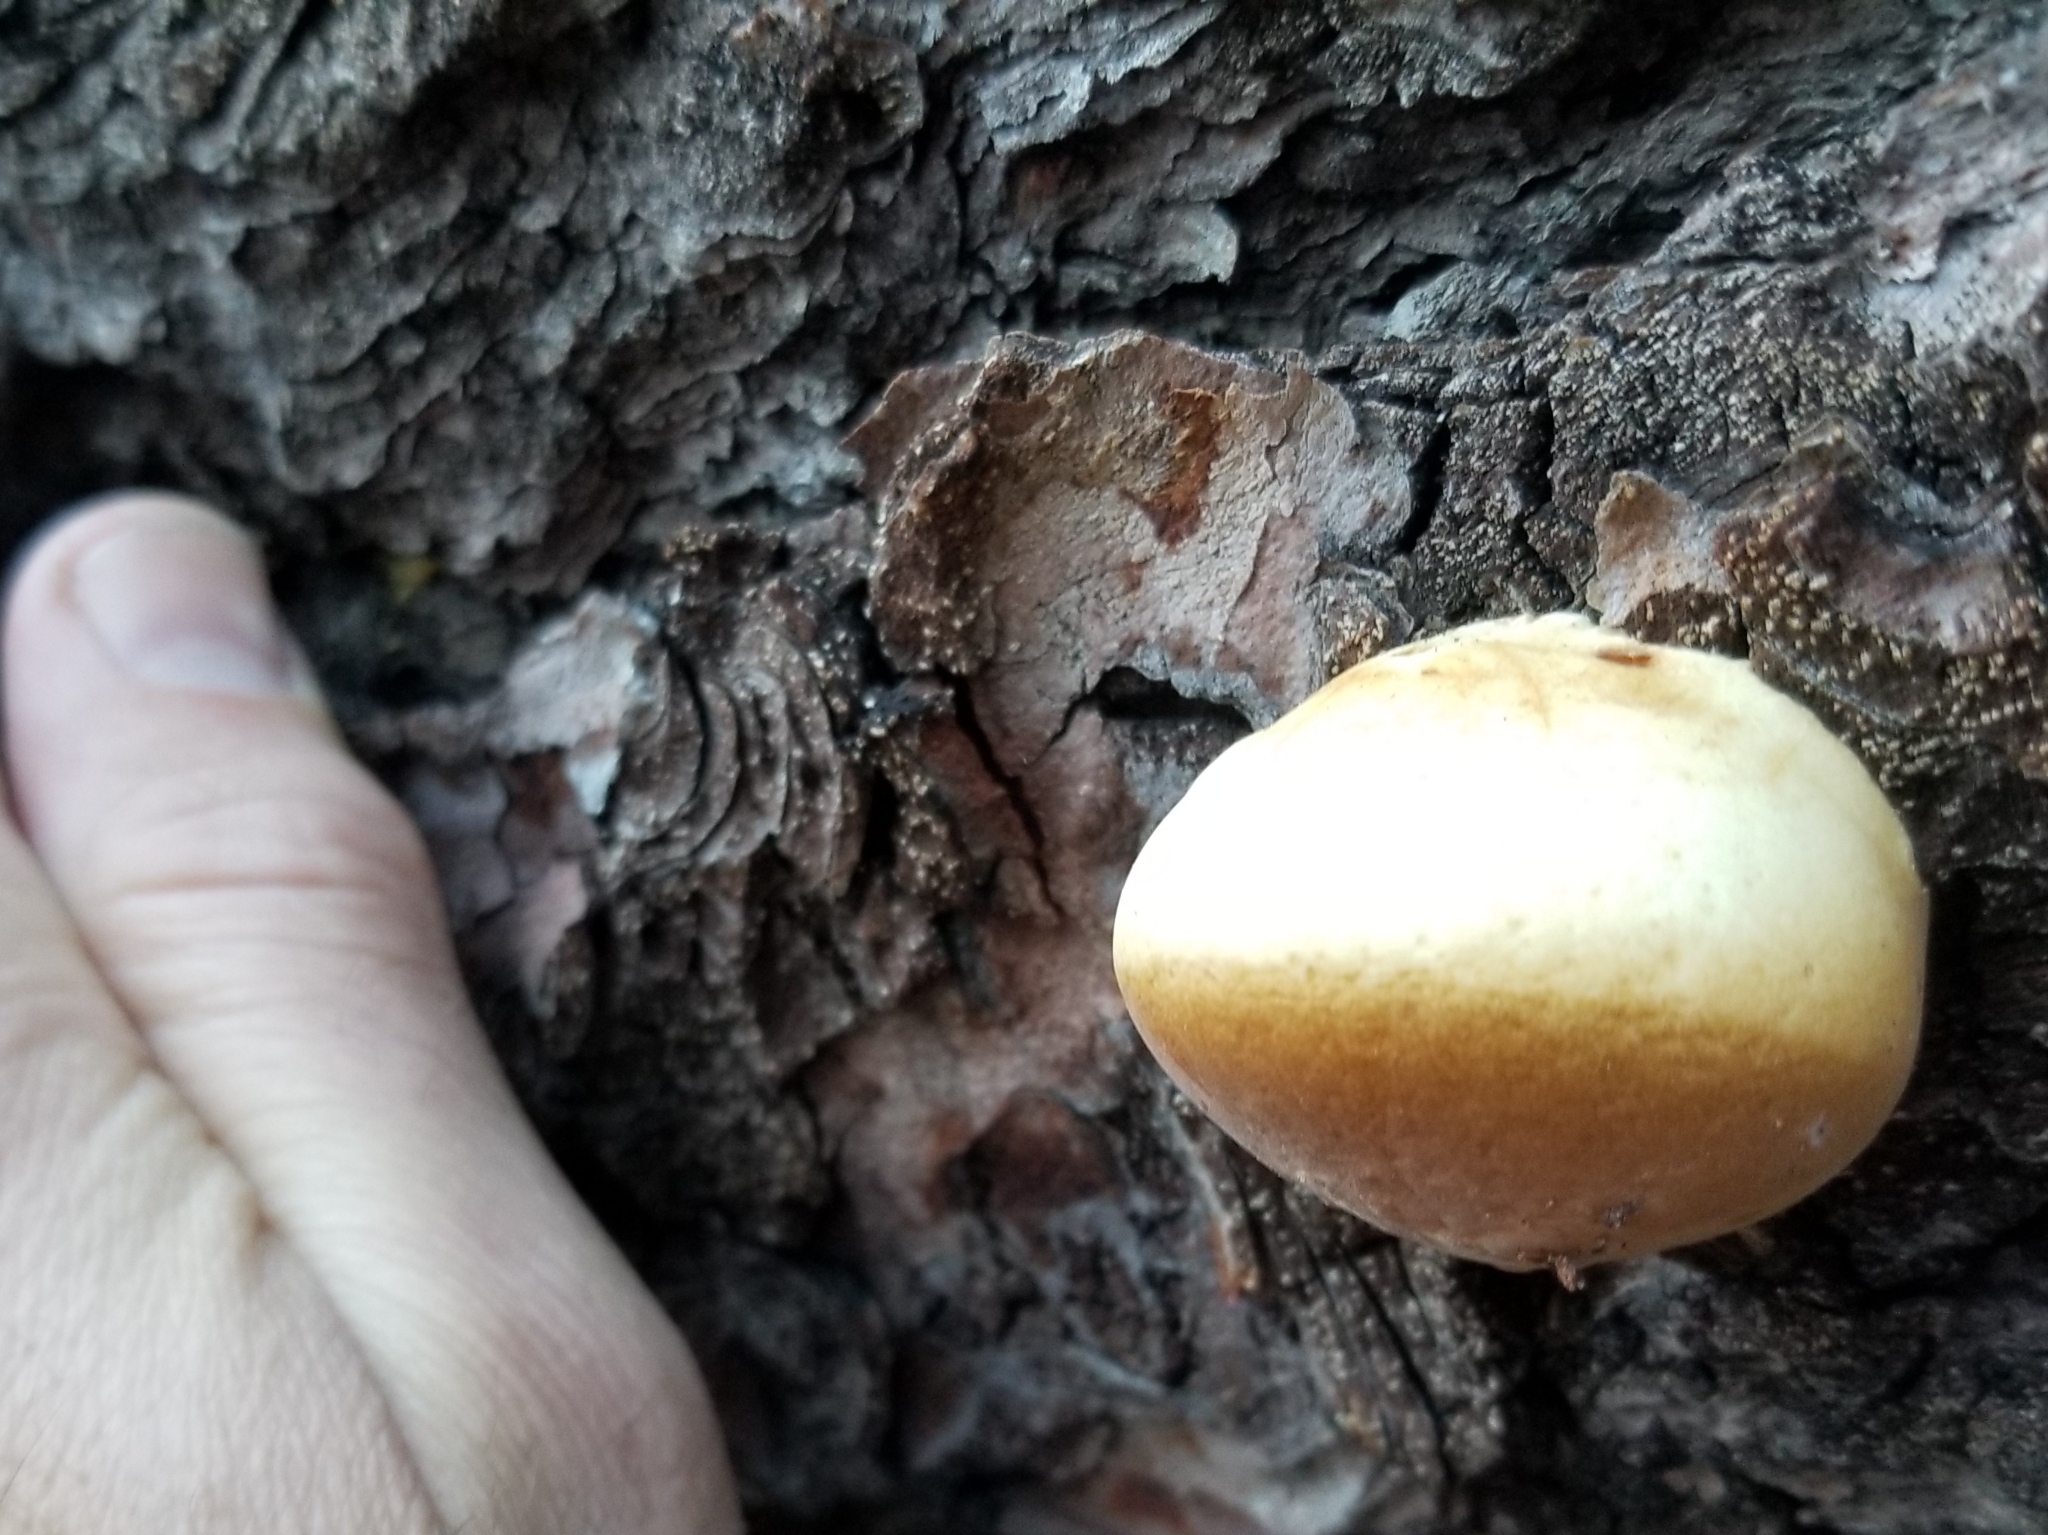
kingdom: Fungi
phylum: Basidiomycota
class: Agaricomycetes
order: Polyporales
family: Polyporaceae
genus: Cryptoporus
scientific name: Cryptoporus volvatus
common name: Veiled polypore
